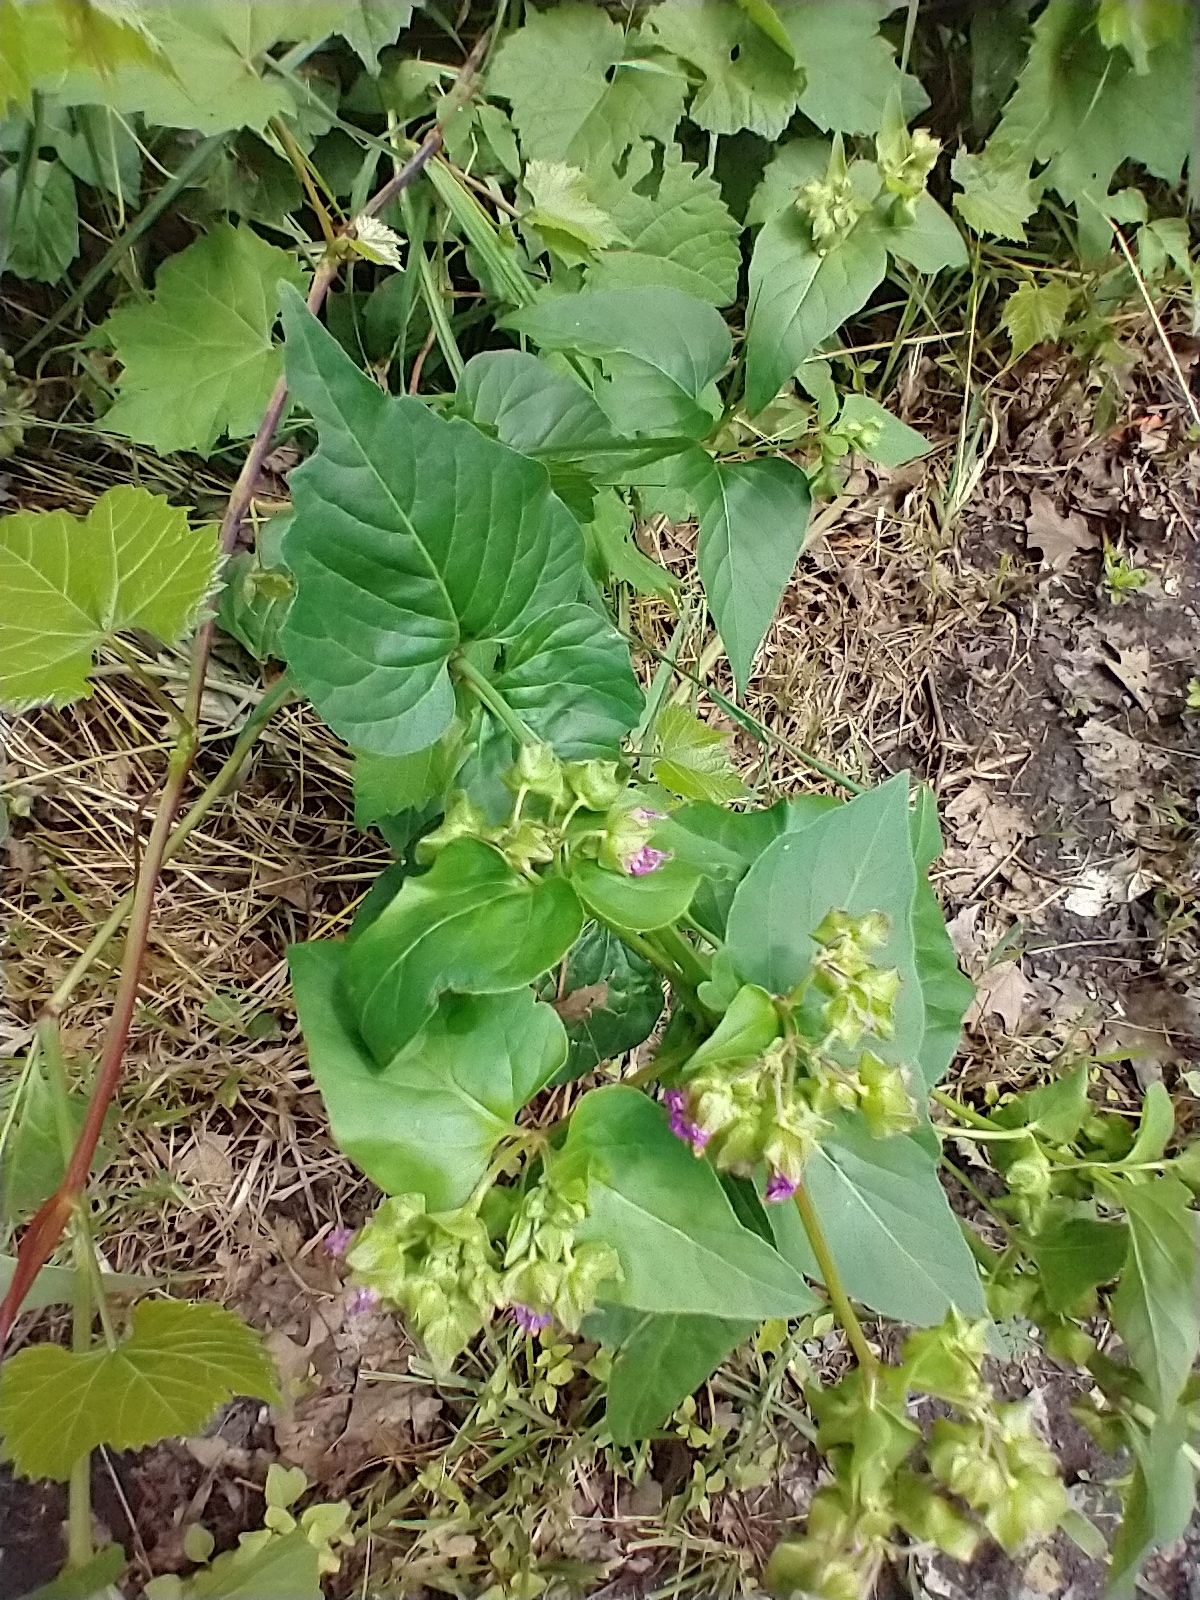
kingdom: Plantae
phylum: Tracheophyta
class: Magnoliopsida
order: Caryophyllales
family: Nyctaginaceae
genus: Mirabilis
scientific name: Mirabilis nyctaginea
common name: Umbrella wort
